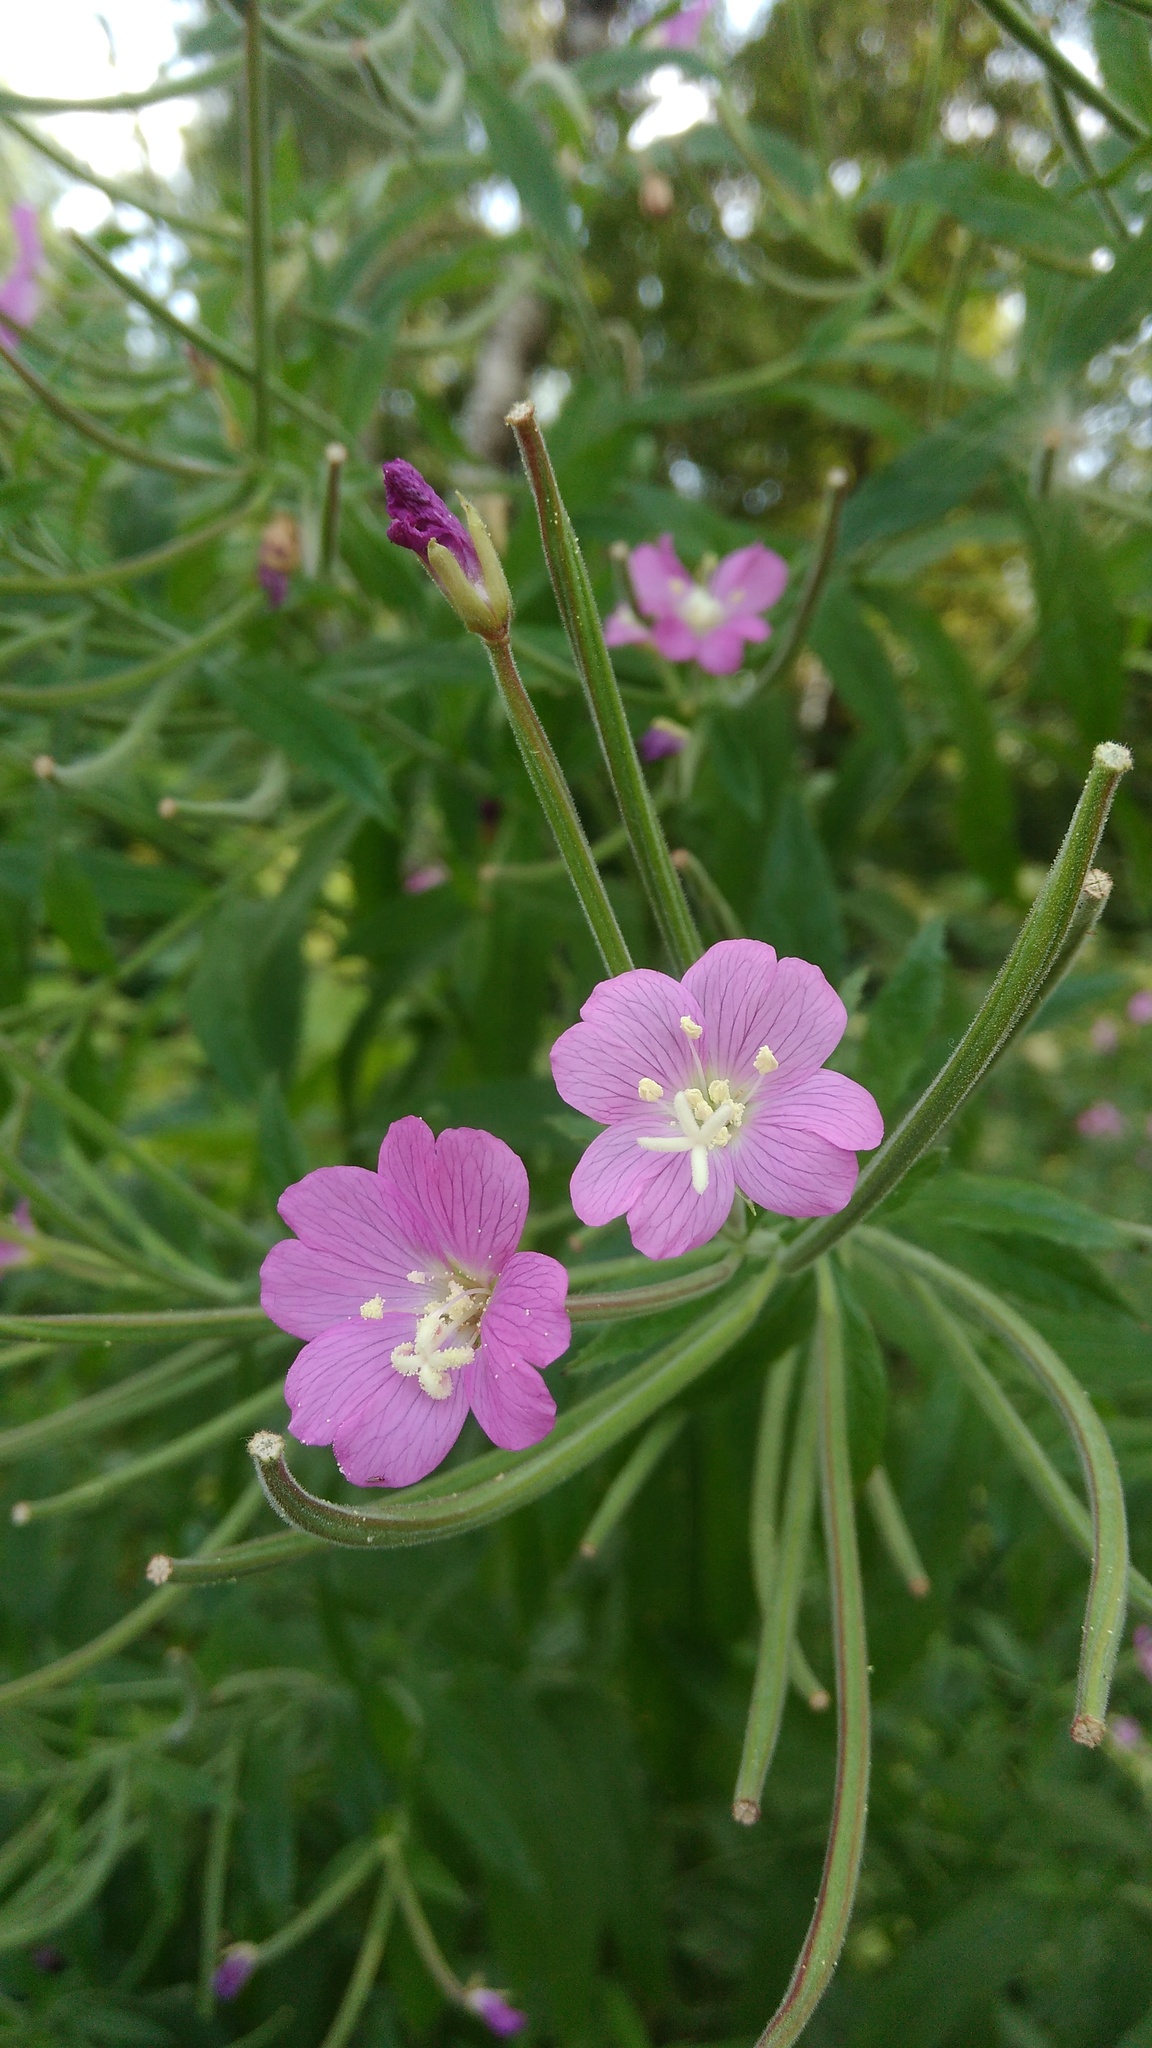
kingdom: Plantae
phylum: Tracheophyta
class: Magnoliopsida
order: Myrtales
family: Onagraceae
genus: Epilobium
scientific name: Epilobium hirsutum
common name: Great willowherb
